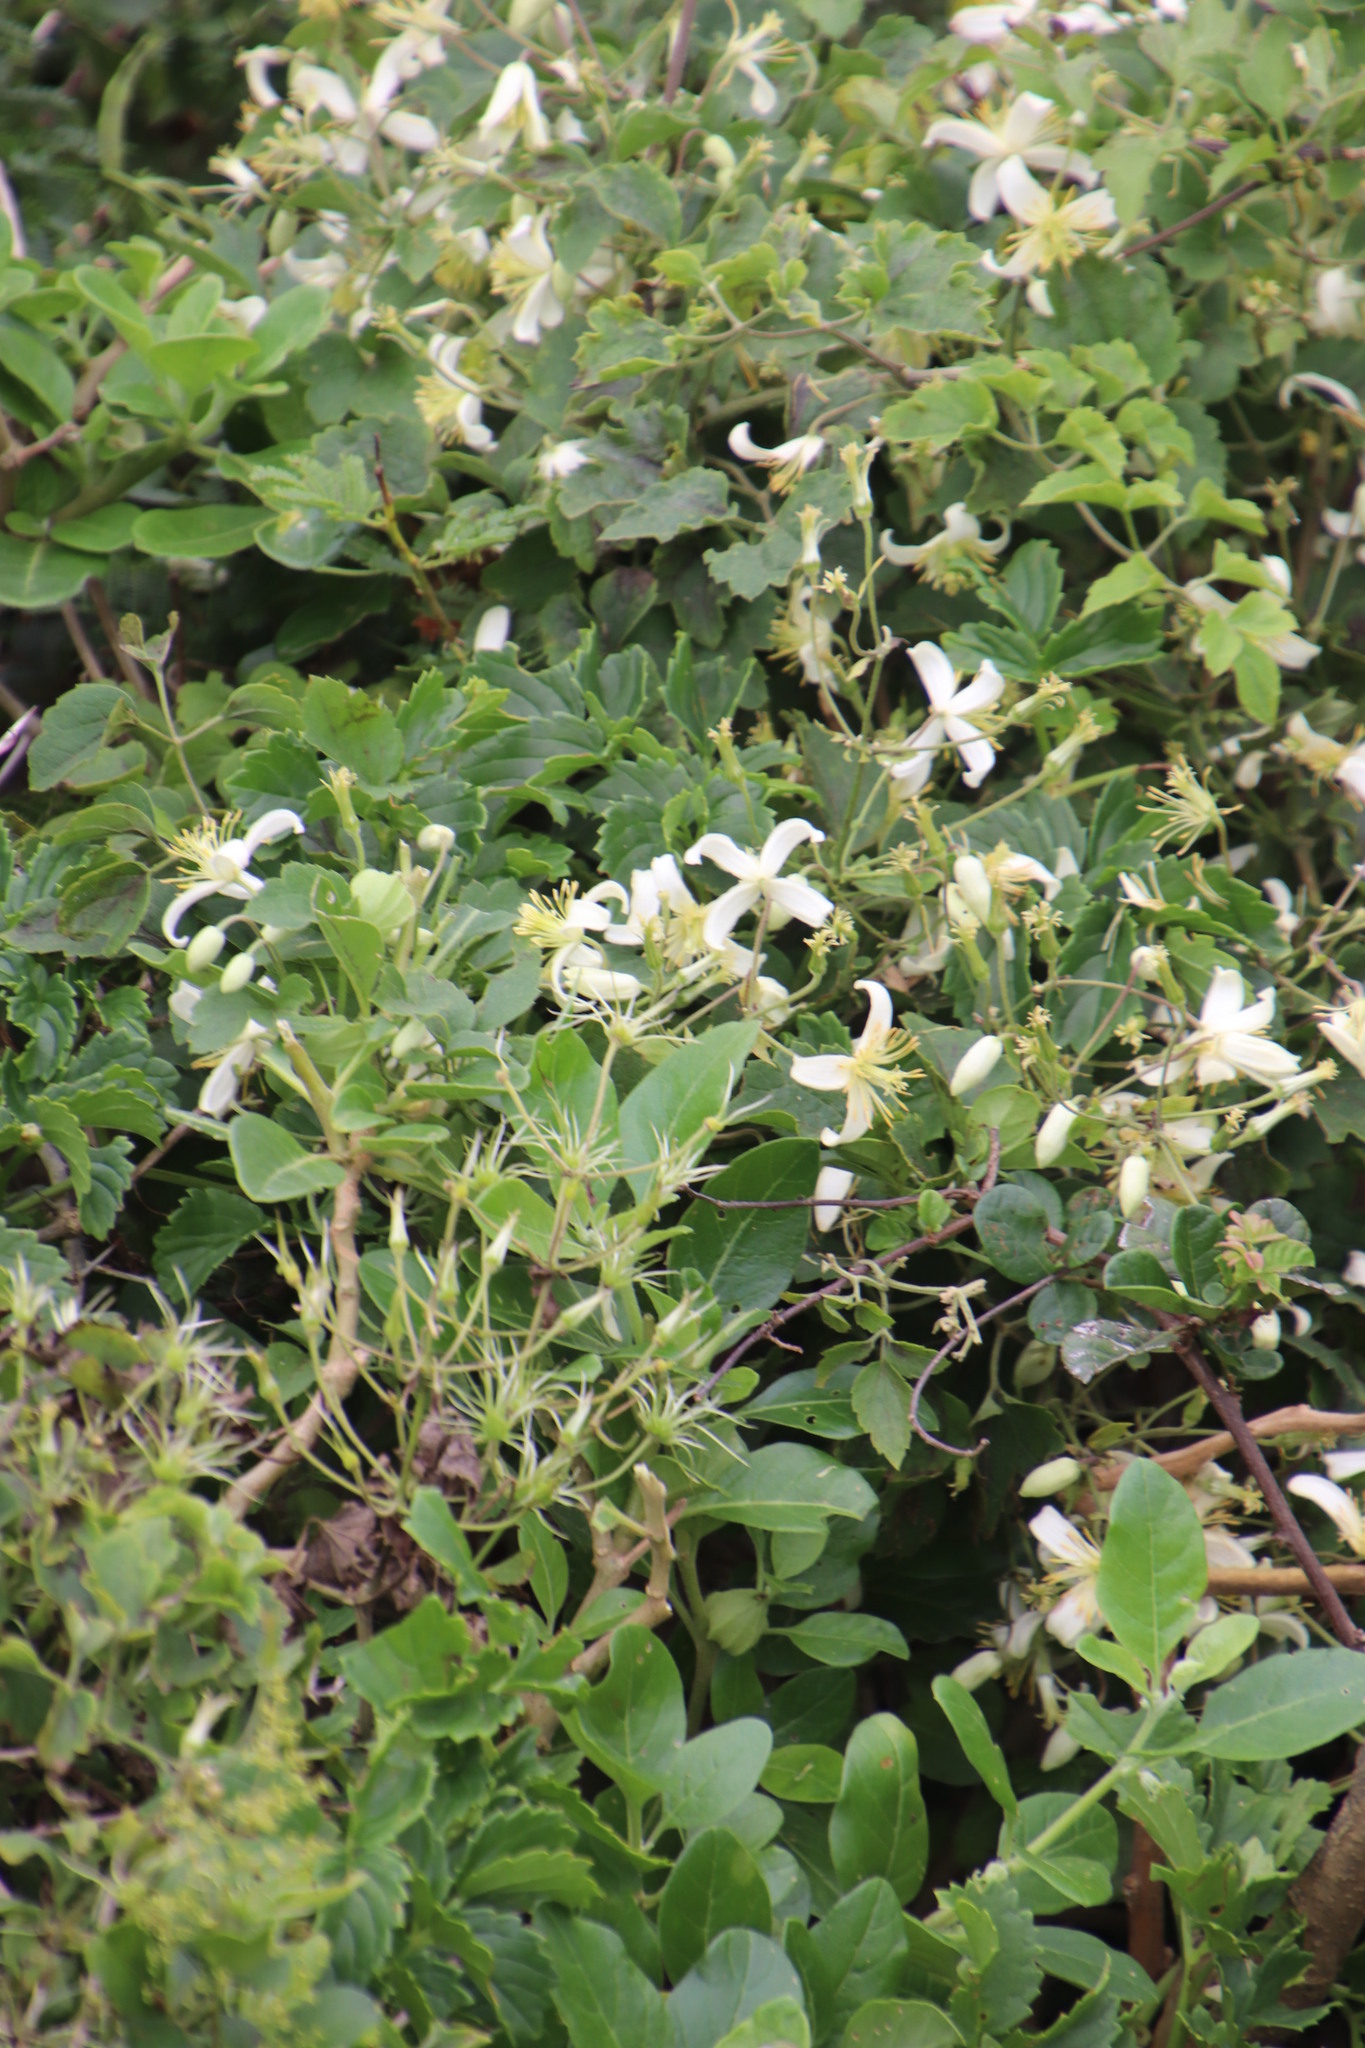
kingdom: Plantae
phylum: Tracheophyta
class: Magnoliopsida
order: Ranunculales
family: Ranunculaceae
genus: Clematis
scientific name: Clematis brachiata
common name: Traveler's-joy
